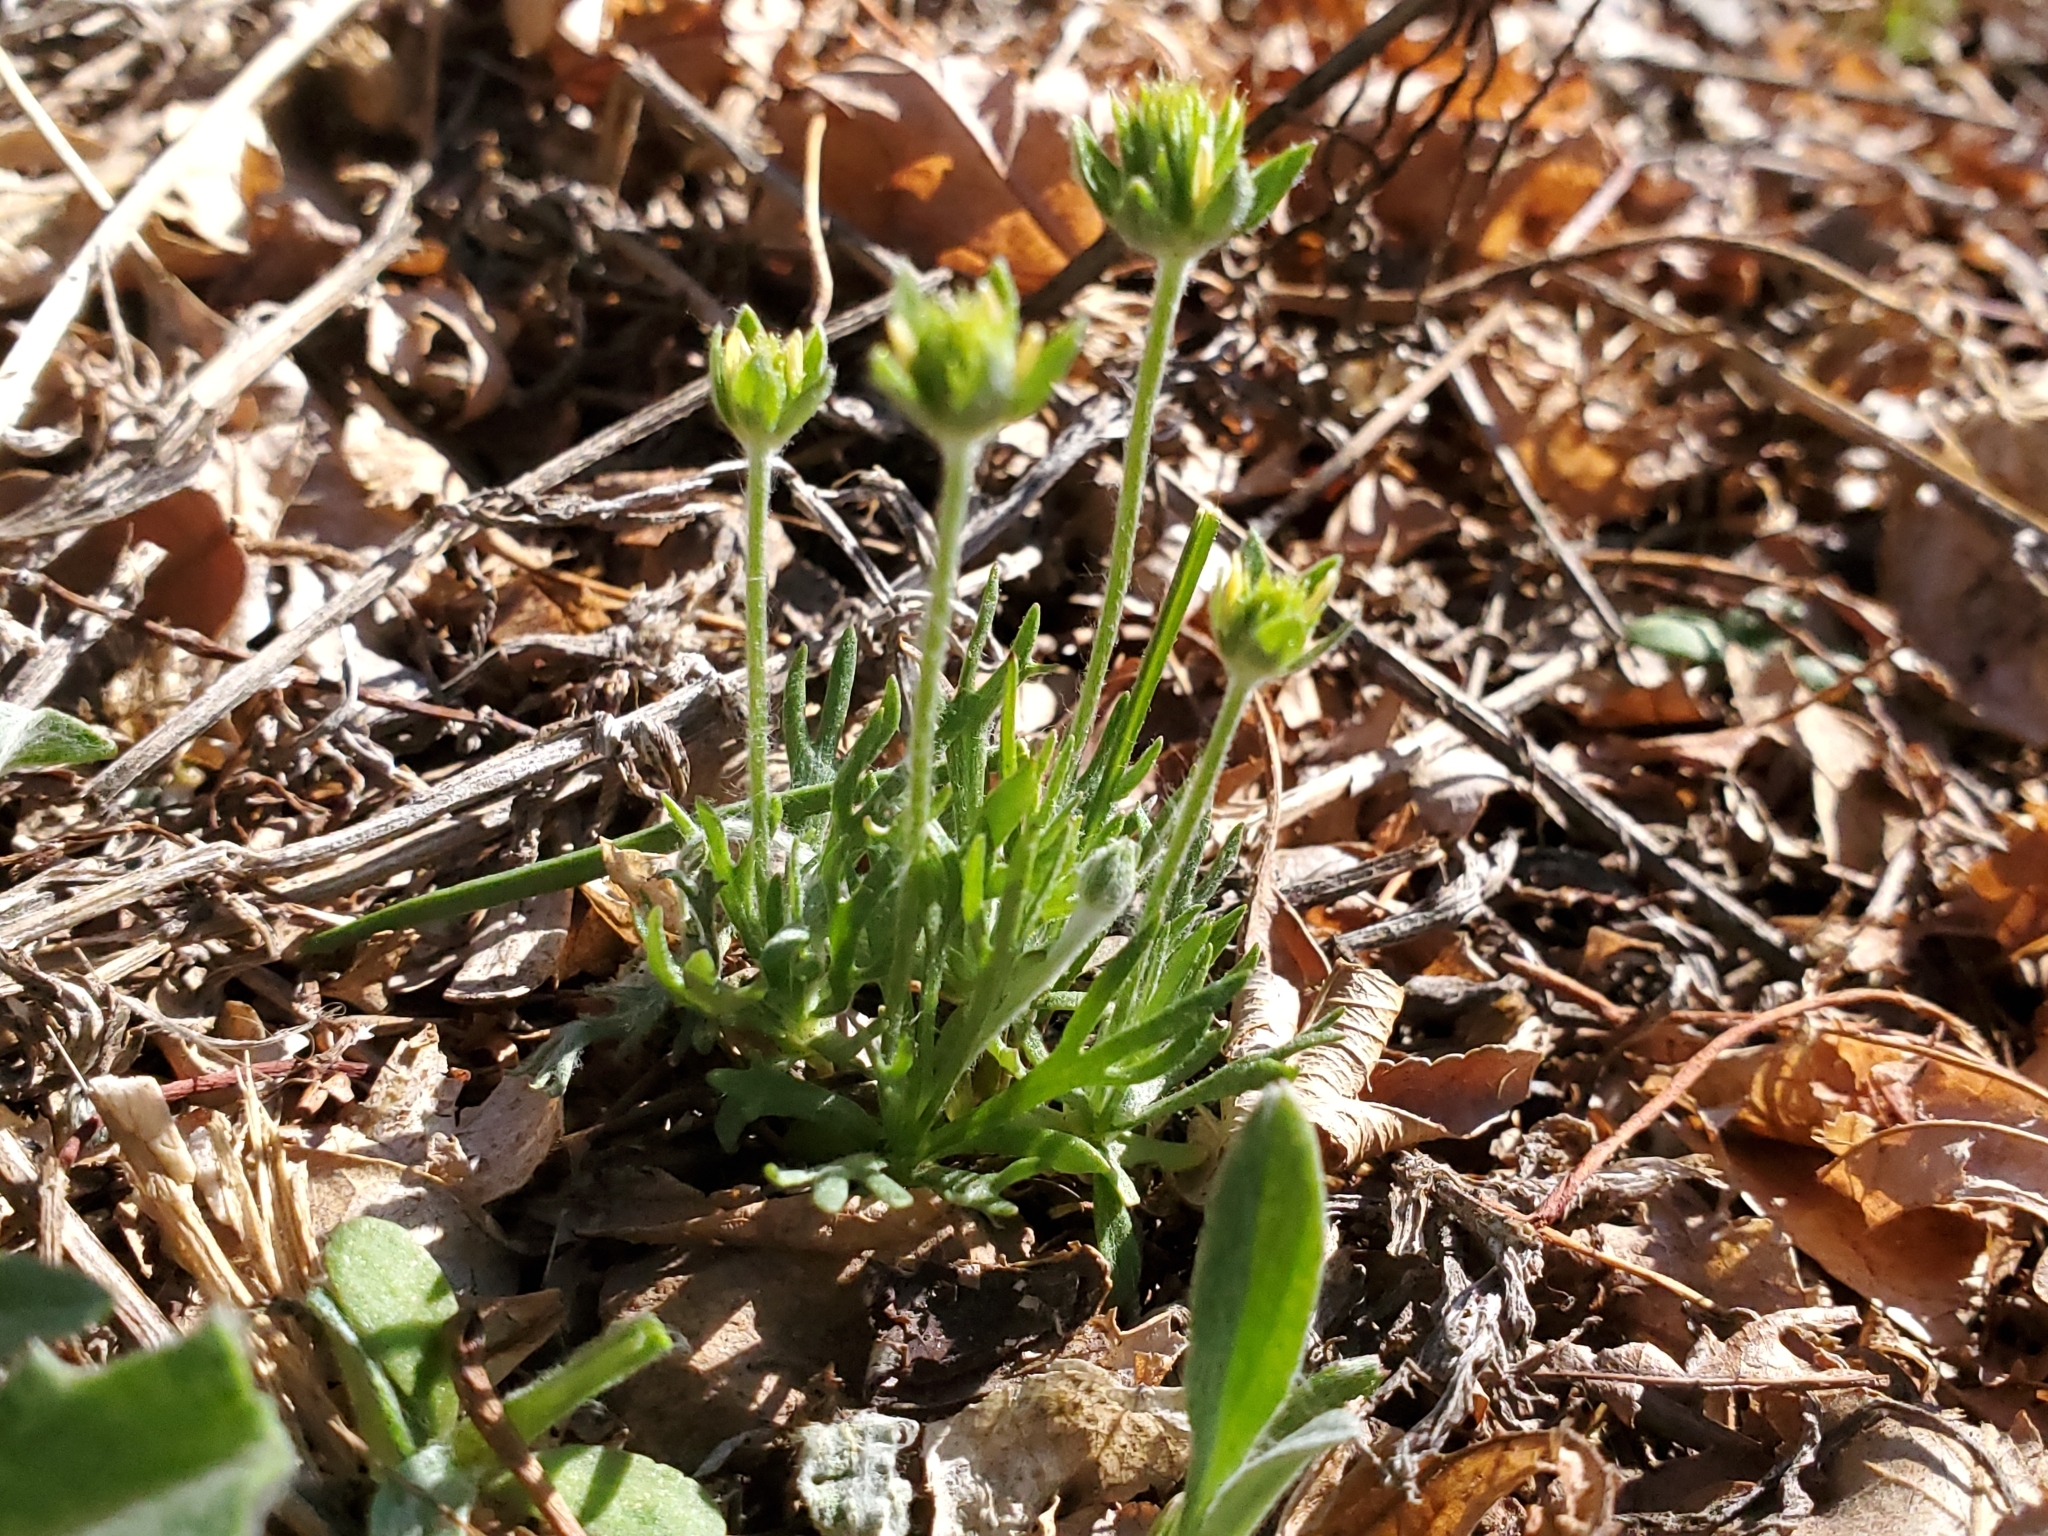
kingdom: Plantae
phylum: Tracheophyta
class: Magnoliopsida
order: Ranunculales
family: Ranunculaceae
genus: Ceratocephala
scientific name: Ceratocephala orthoceras
